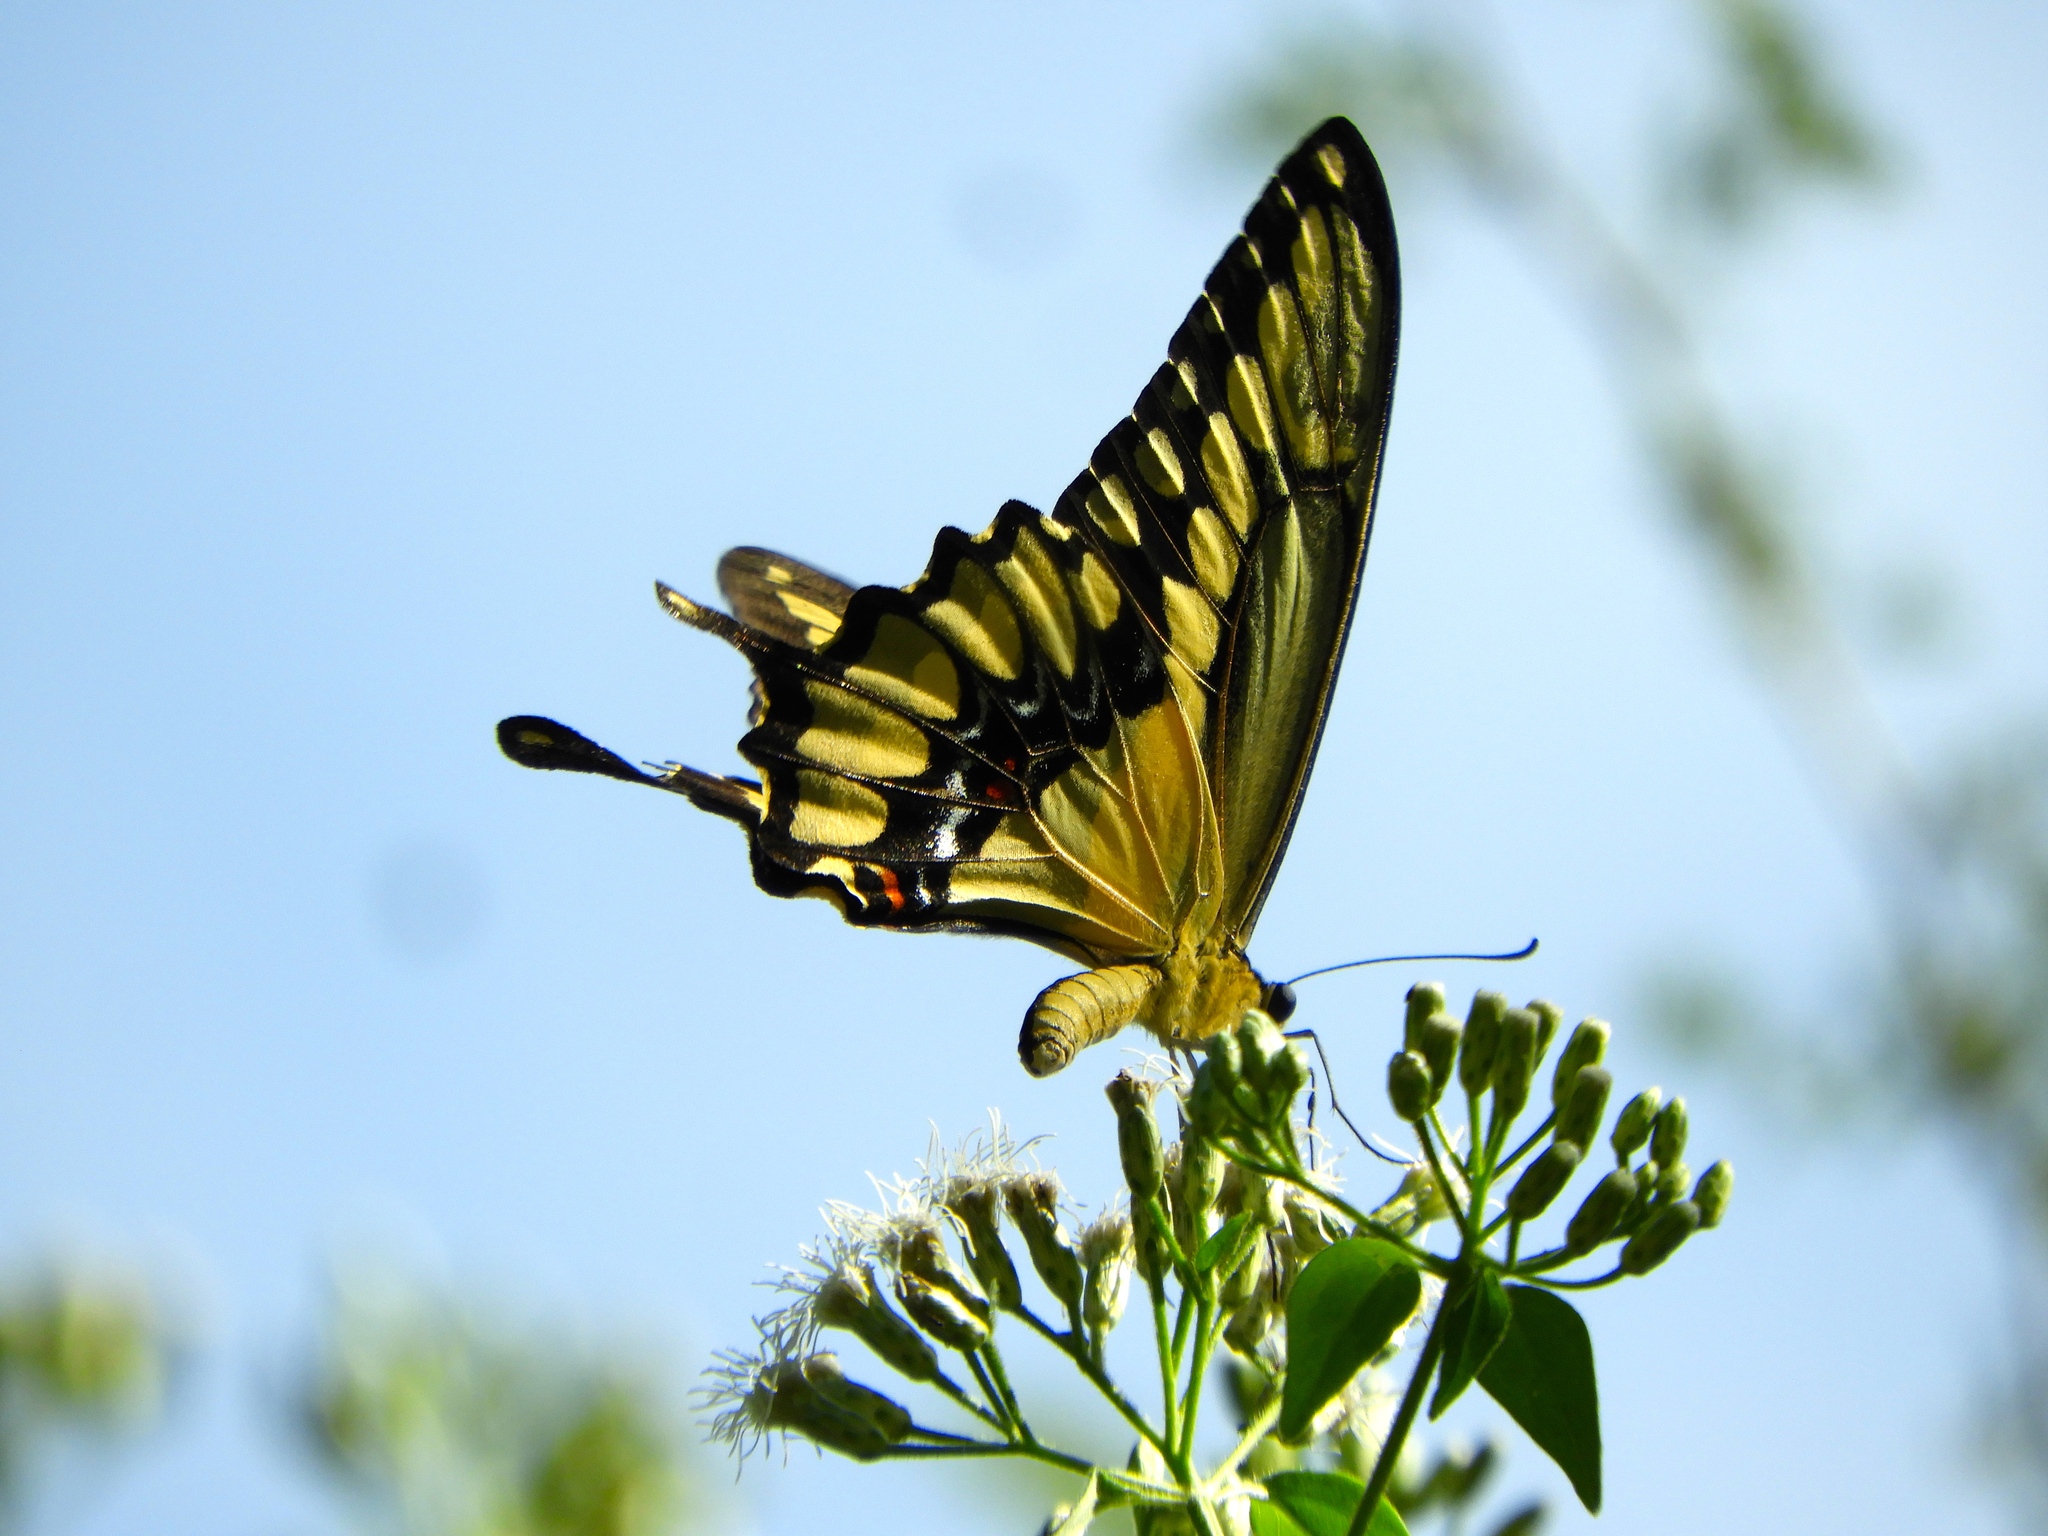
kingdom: Animalia
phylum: Arthropoda
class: Insecta
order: Lepidoptera
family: Papilionidae
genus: Papilio
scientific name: Papilio rumiko
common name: Western giant swallowtail
